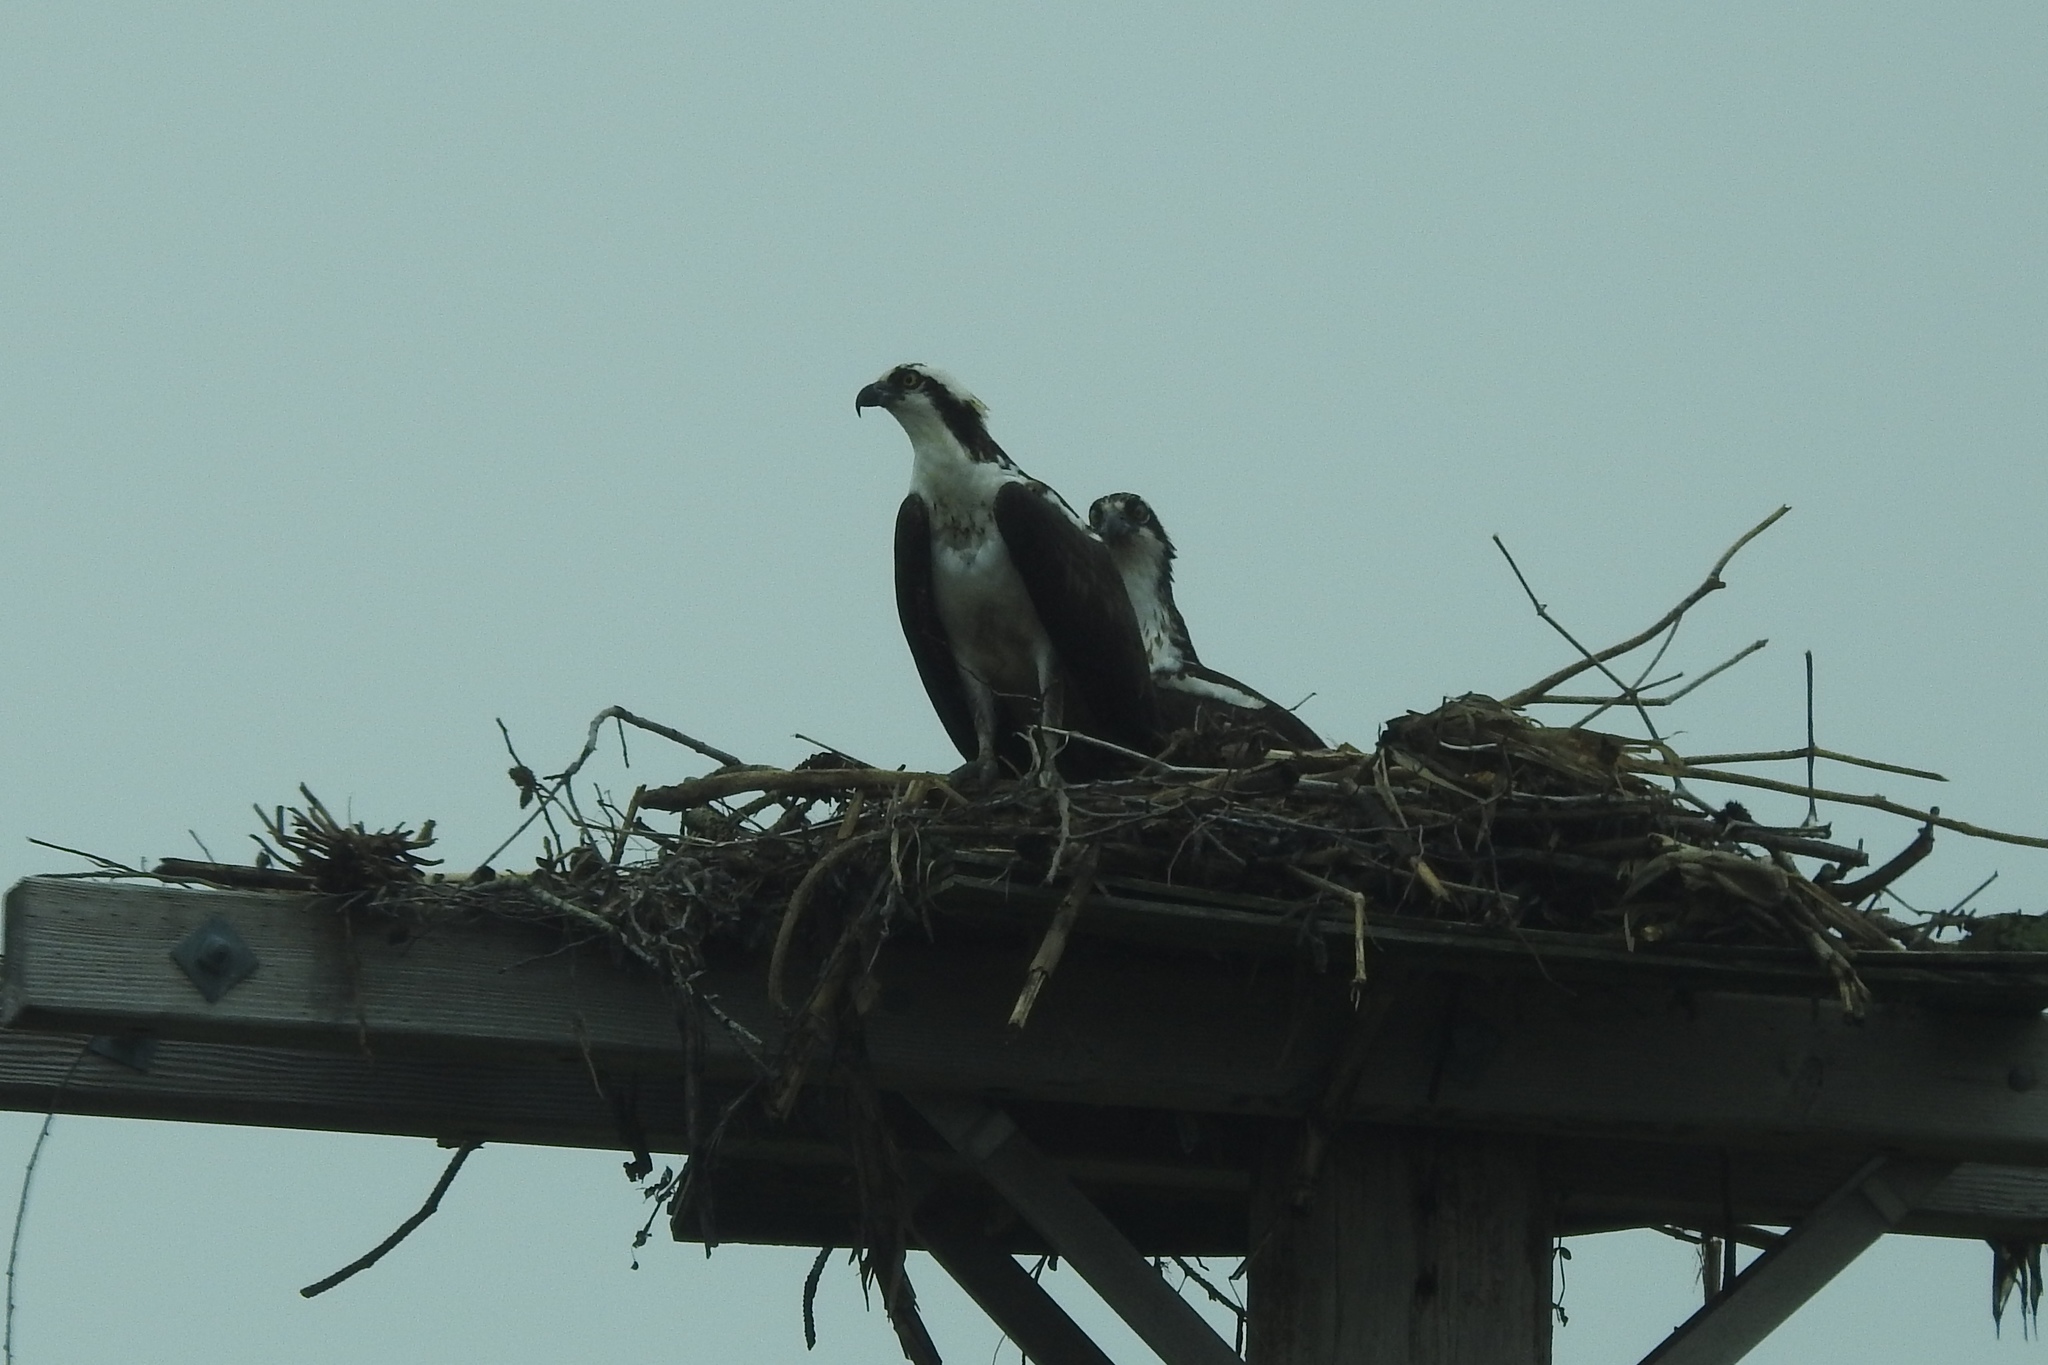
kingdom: Animalia
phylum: Chordata
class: Aves
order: Accipitriformes
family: Pandionidae
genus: Pandion
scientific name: Pandion haliaetus
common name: Osprey
